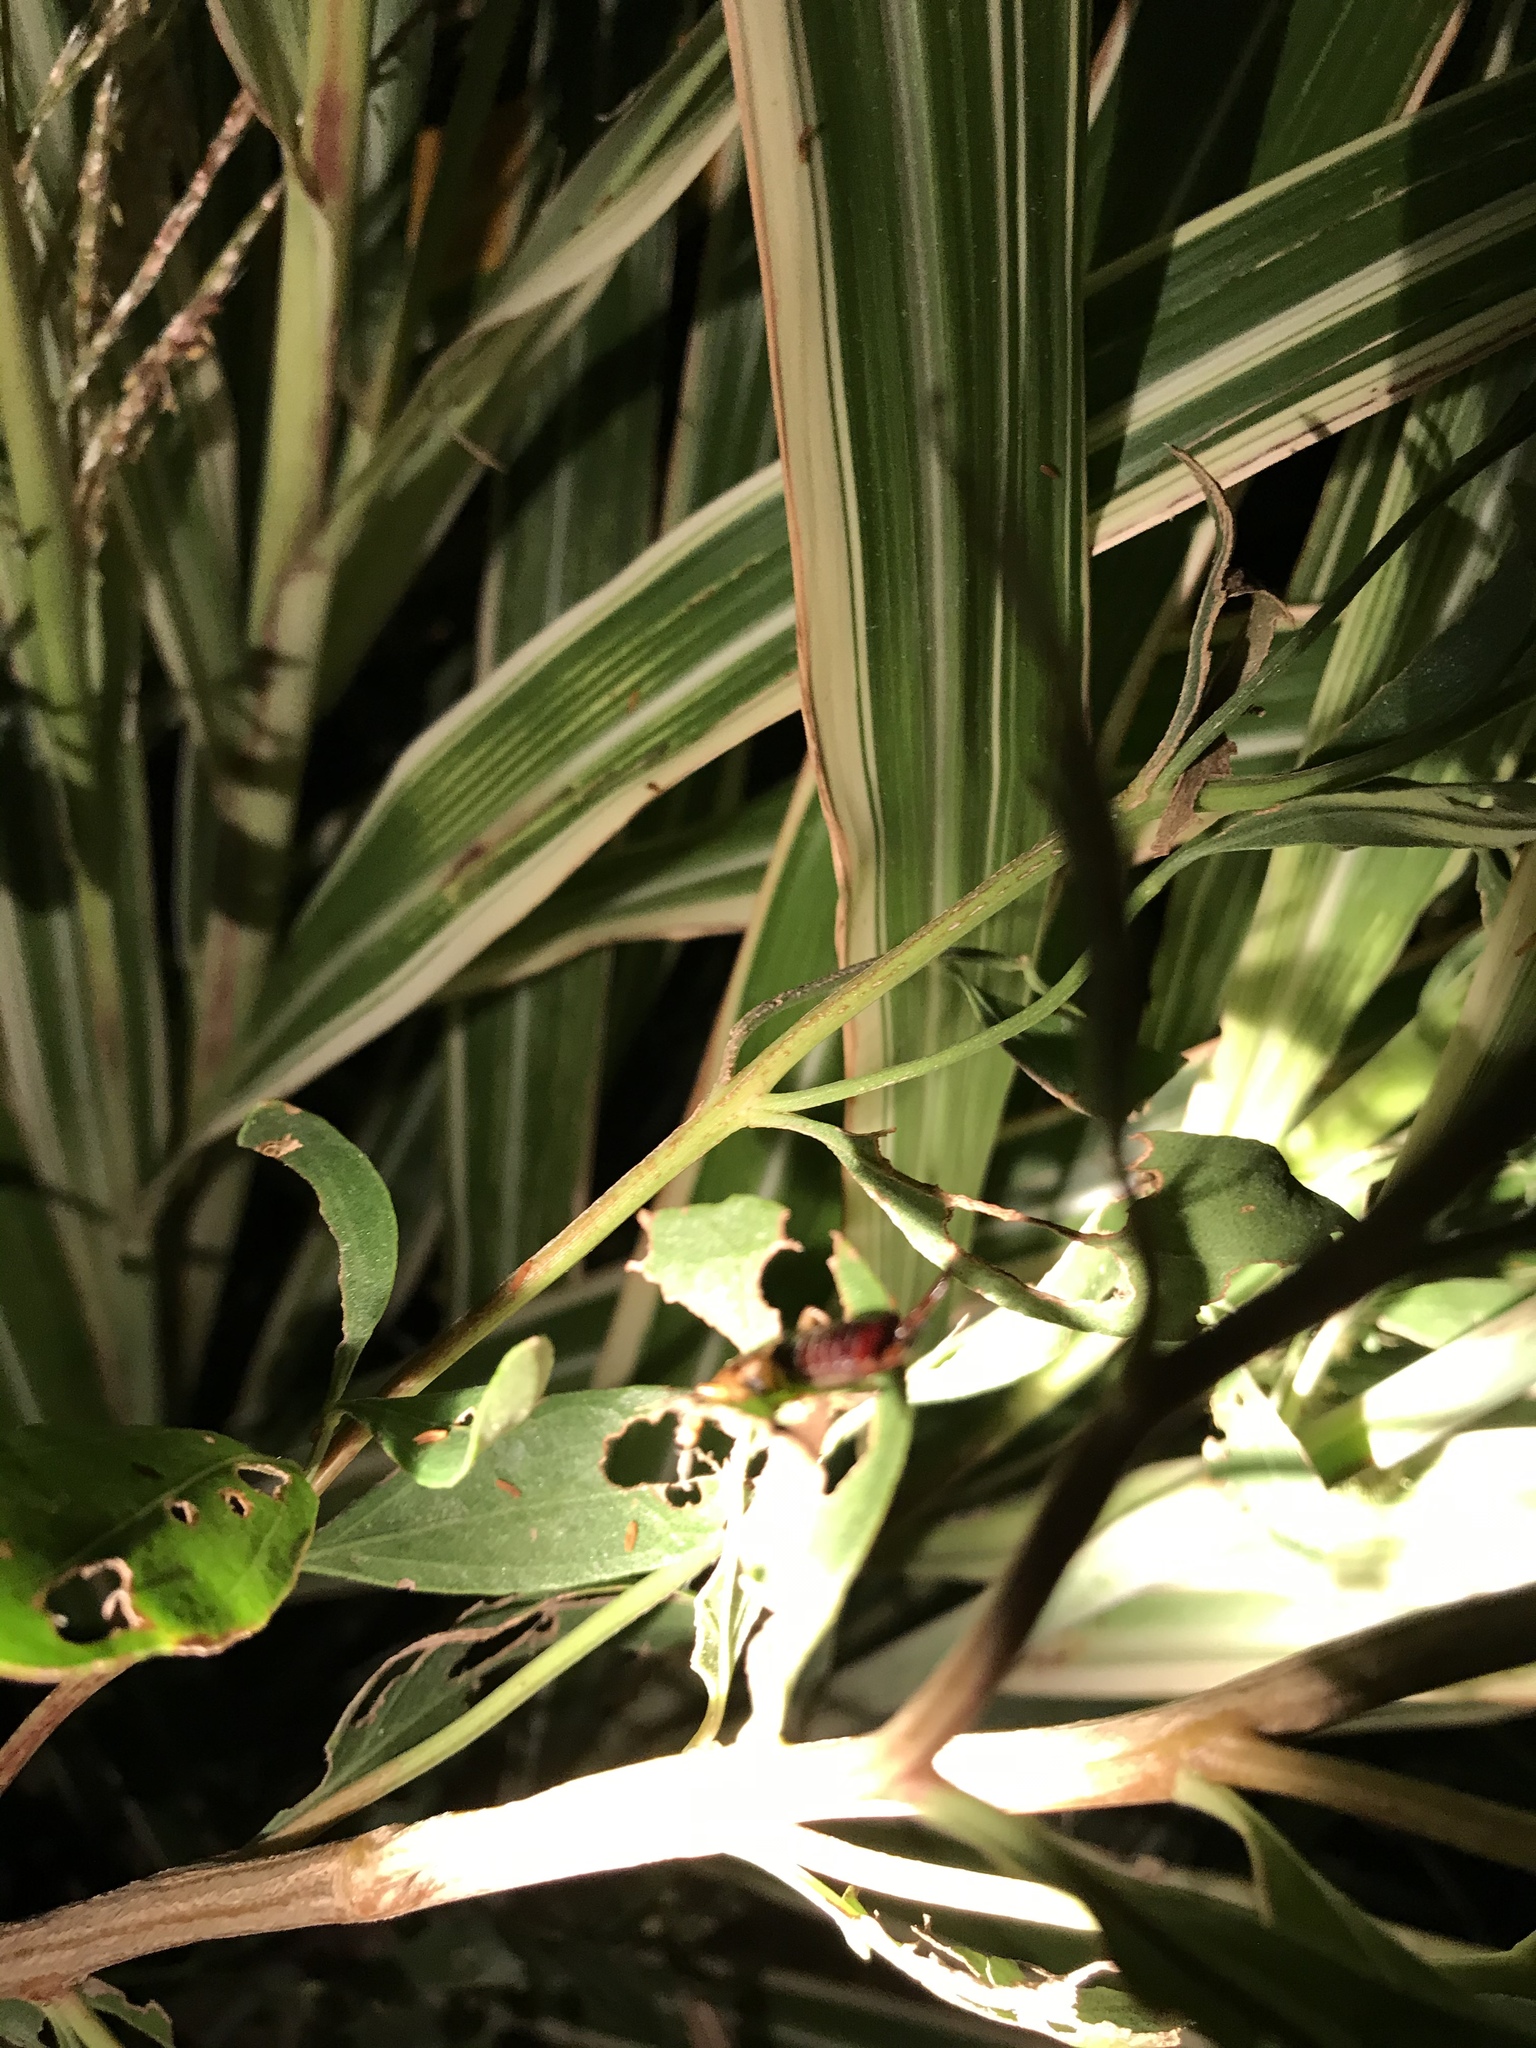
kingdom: Animalia
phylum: Arthropoda
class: Insecta
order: Dermaptera
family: Forficulidae
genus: Forficula
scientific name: Forficula
